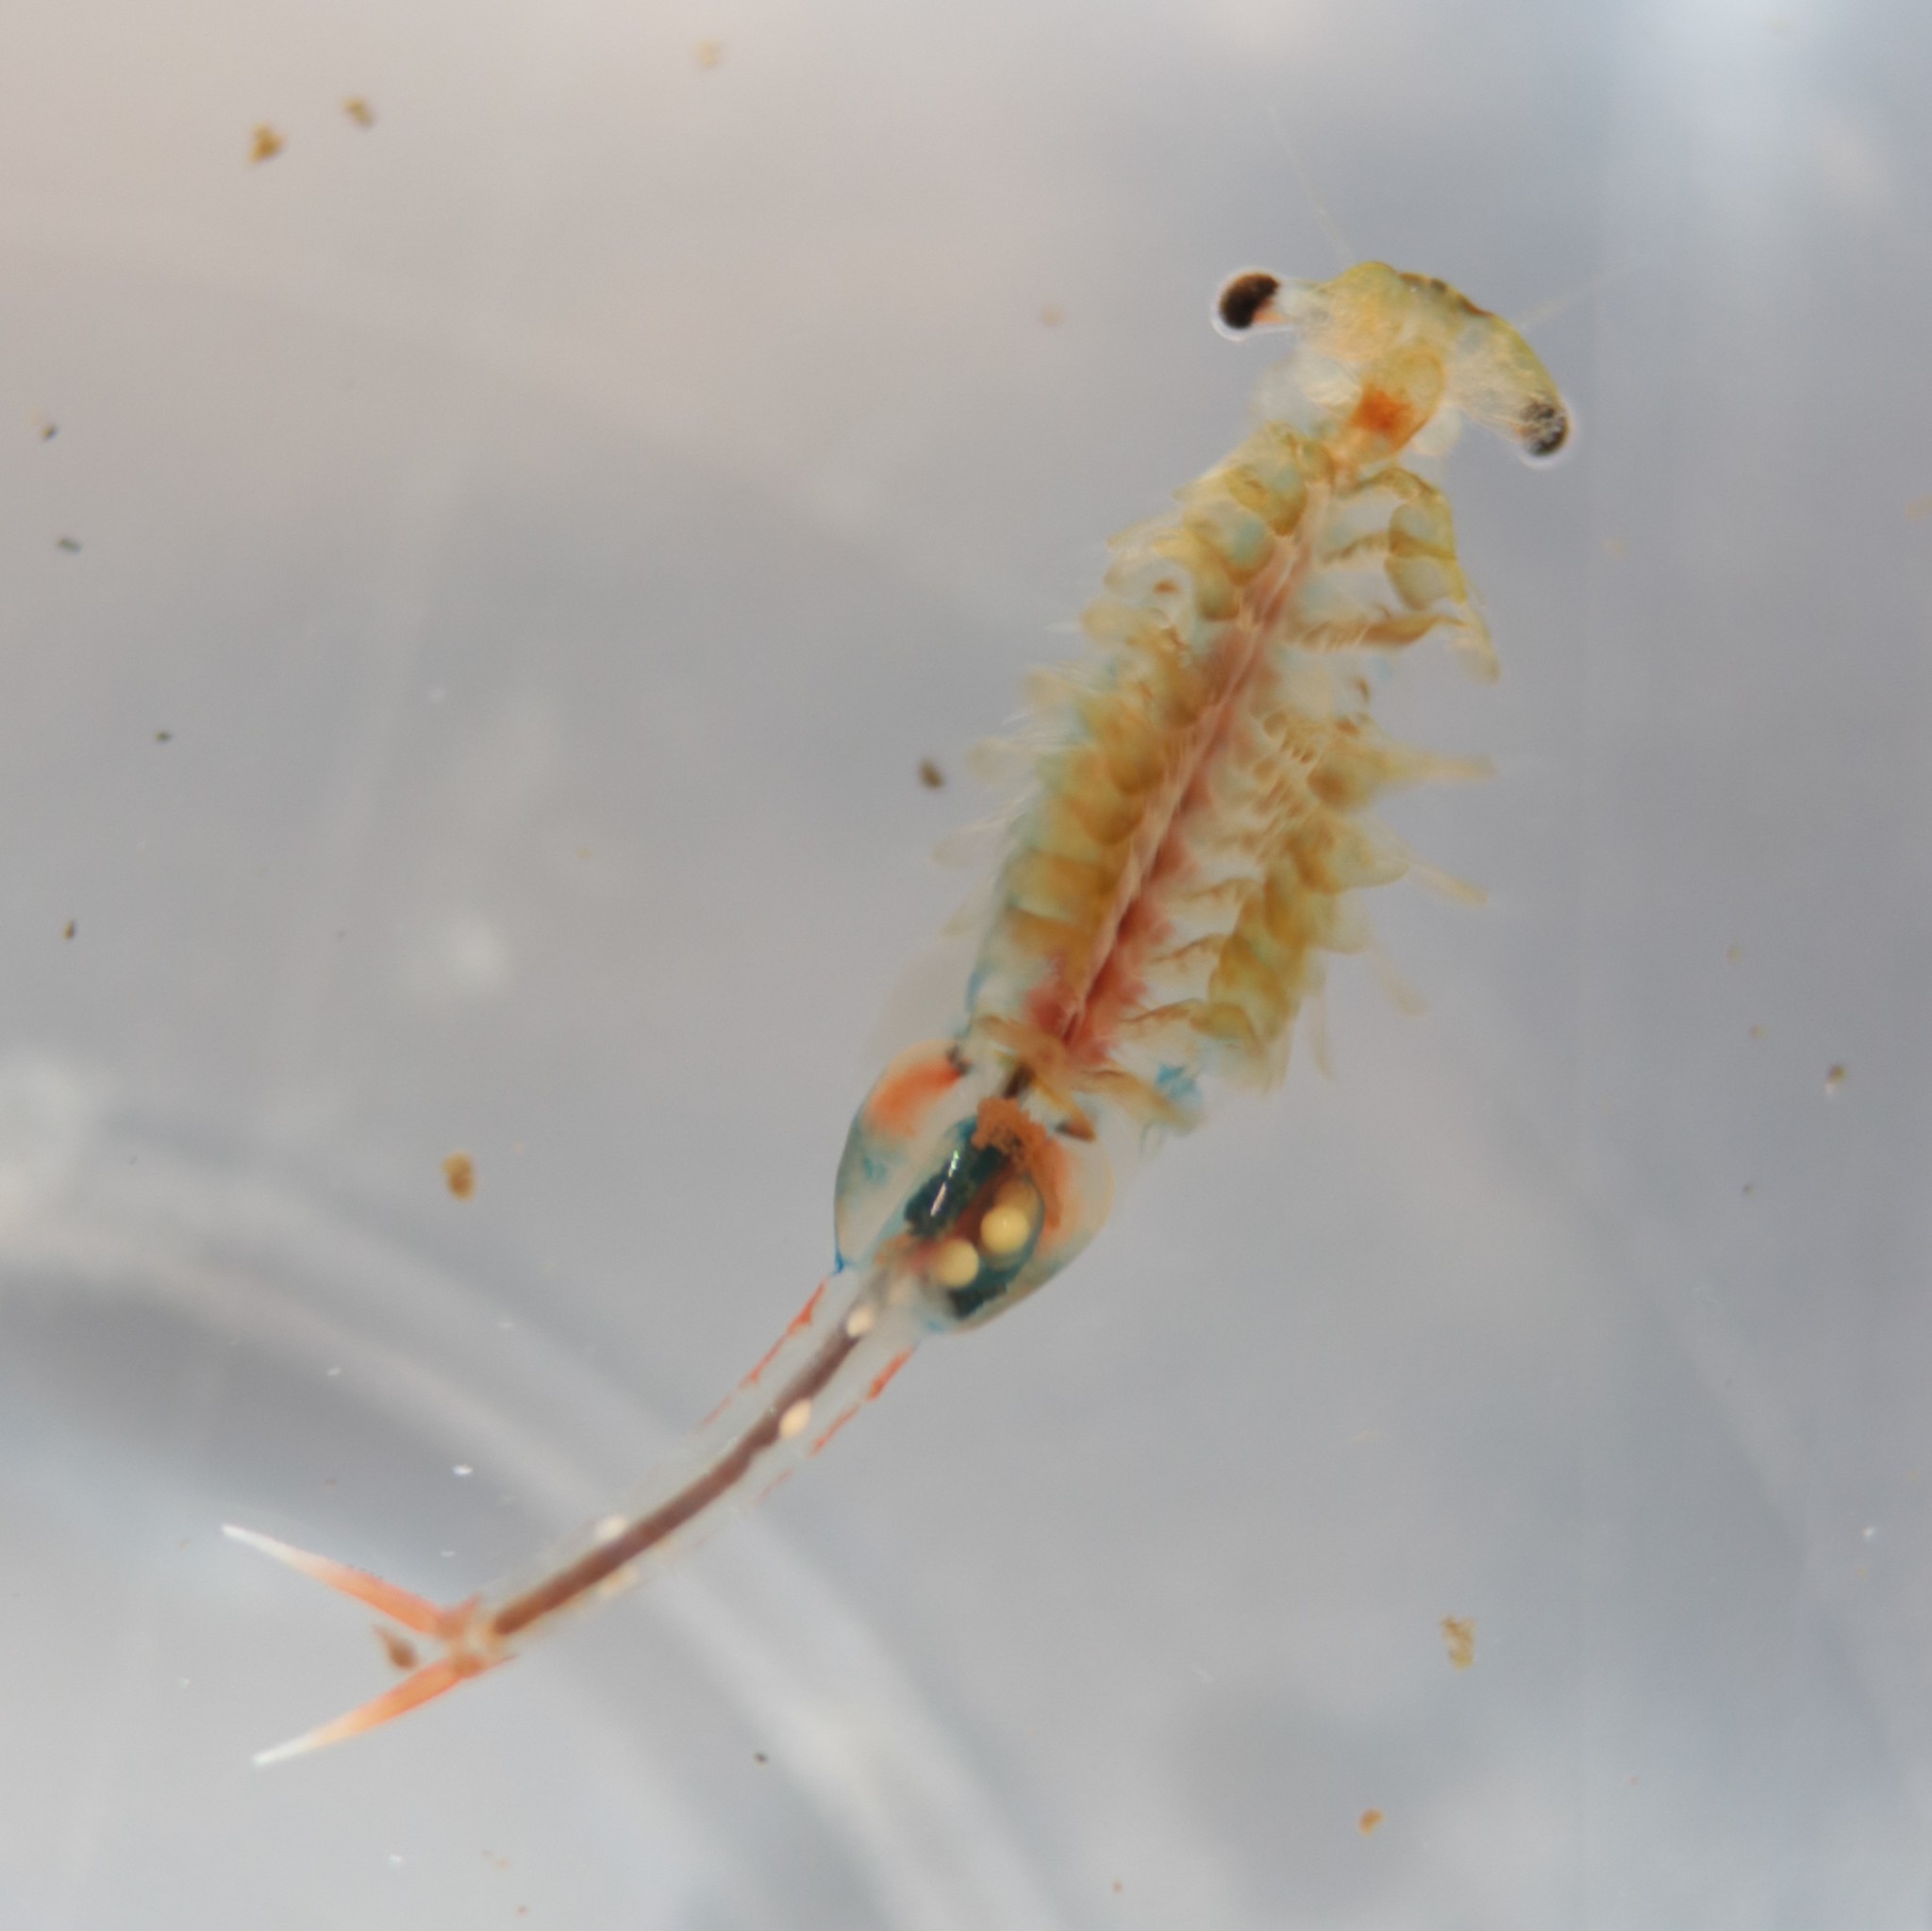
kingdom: Animalia
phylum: Arthropoda
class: Branchiopoda
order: Anostraca
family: Chirocephalidae
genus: Eubranchipus
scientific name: Eubranchipus bundyi
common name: Knob-lip fairy shrimp
